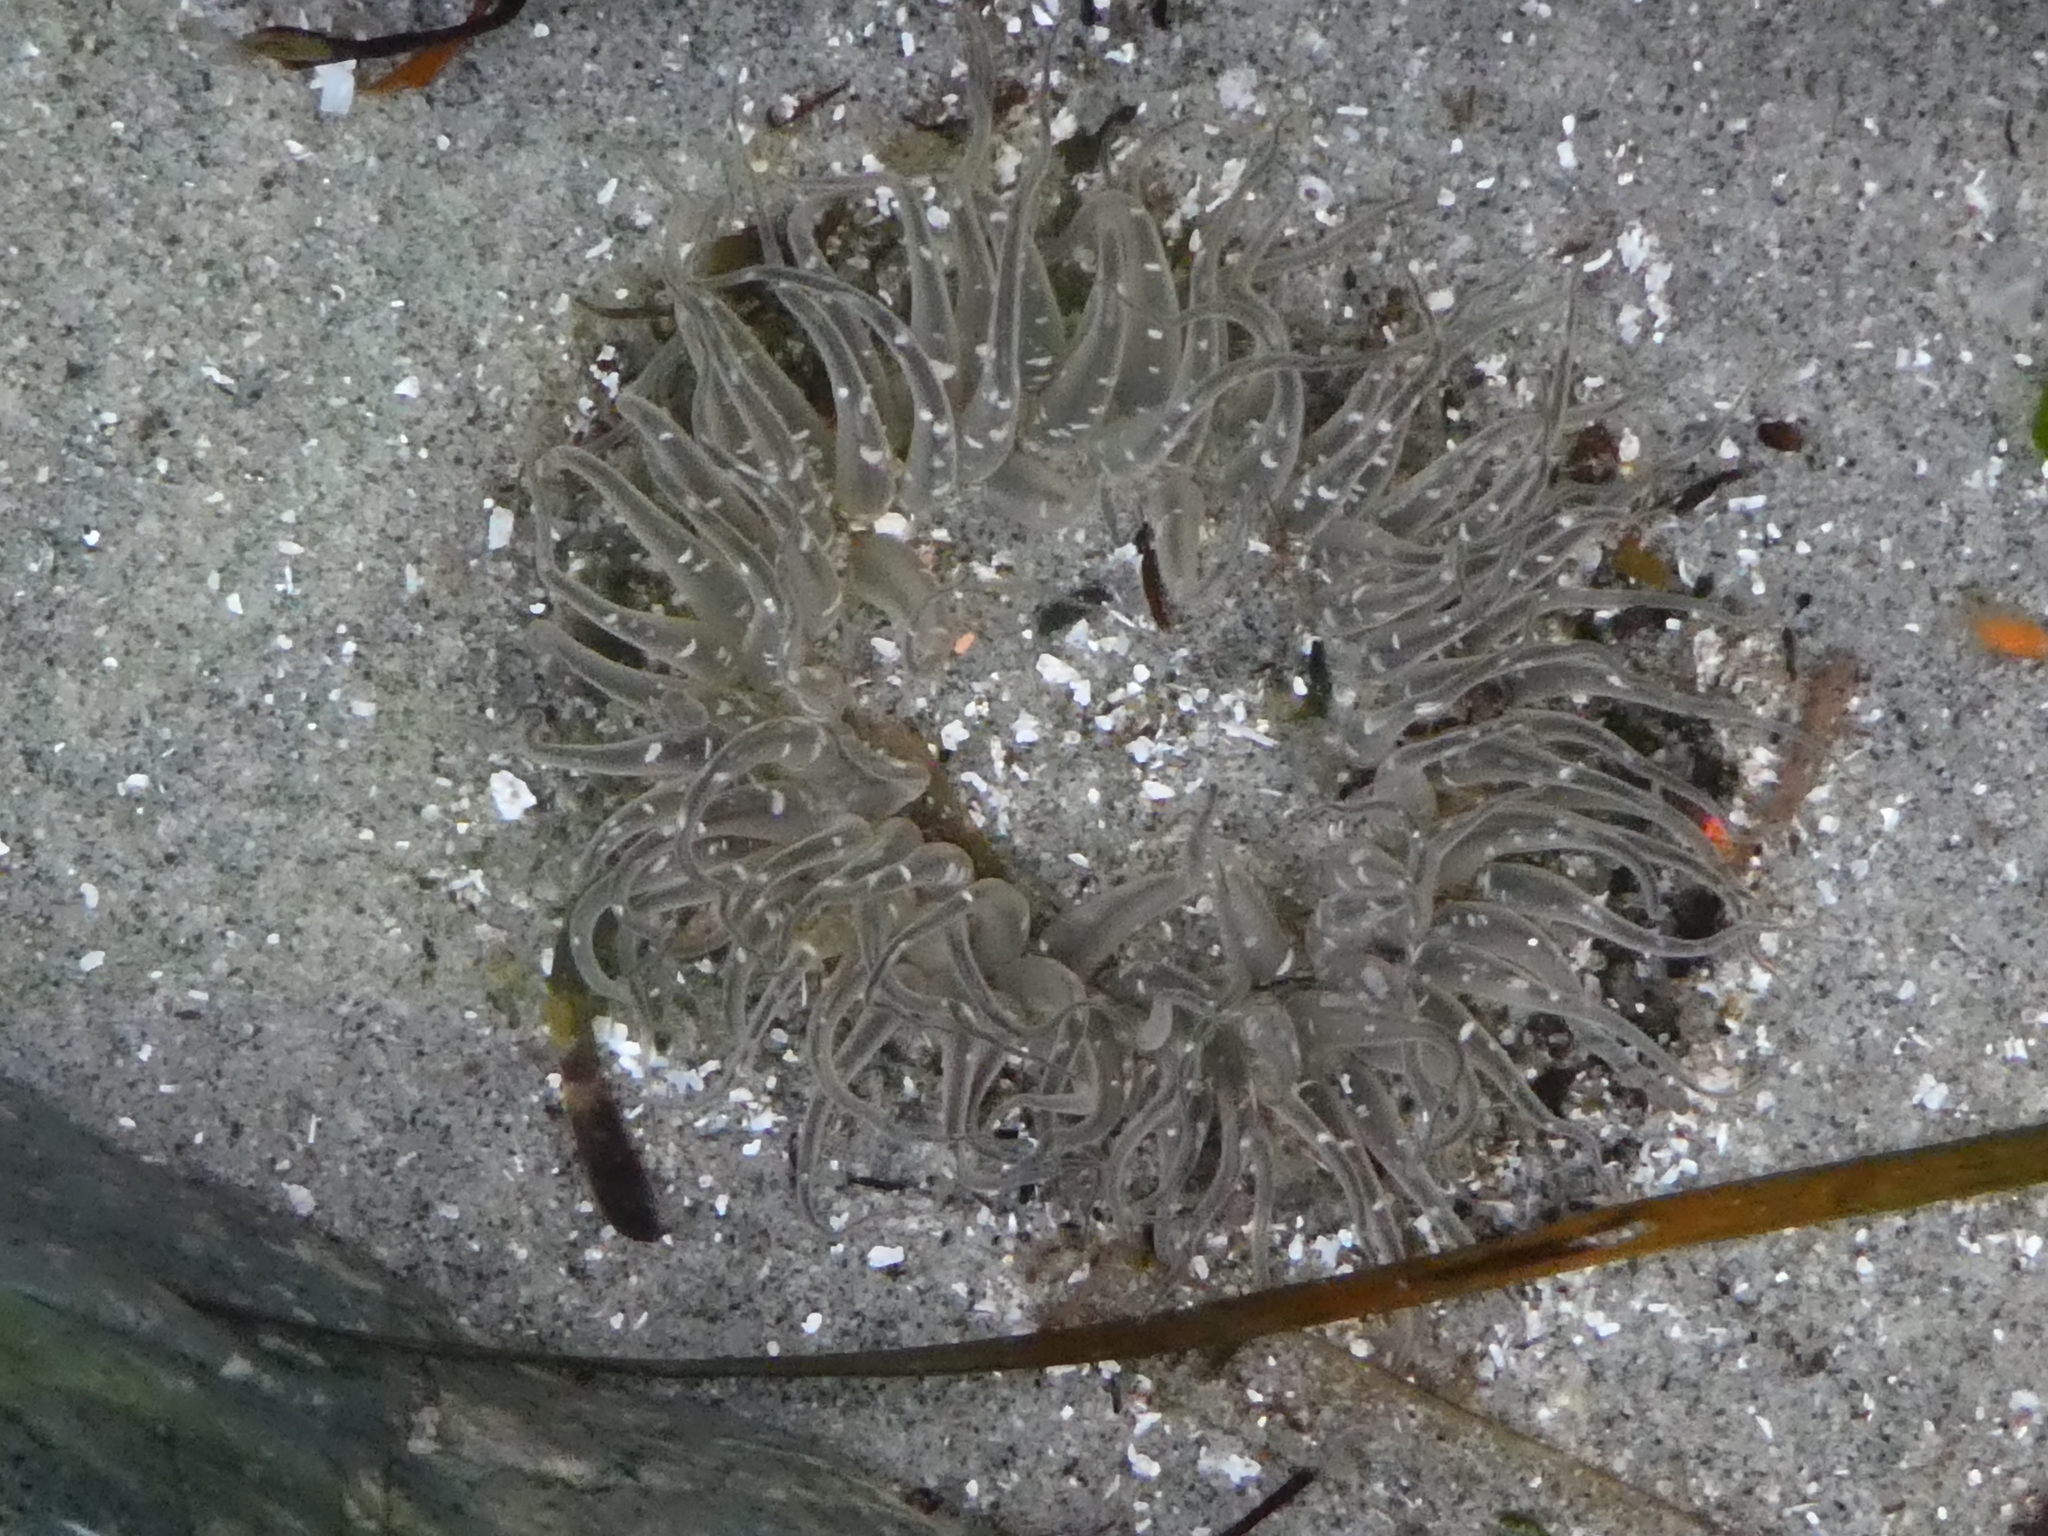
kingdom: Animalia
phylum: Cnidaria
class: Anthozoa
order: Actiniaria
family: Actiniidae
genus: Anthopleura
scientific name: Anthopleura artemisia
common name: Buried sea anemone
